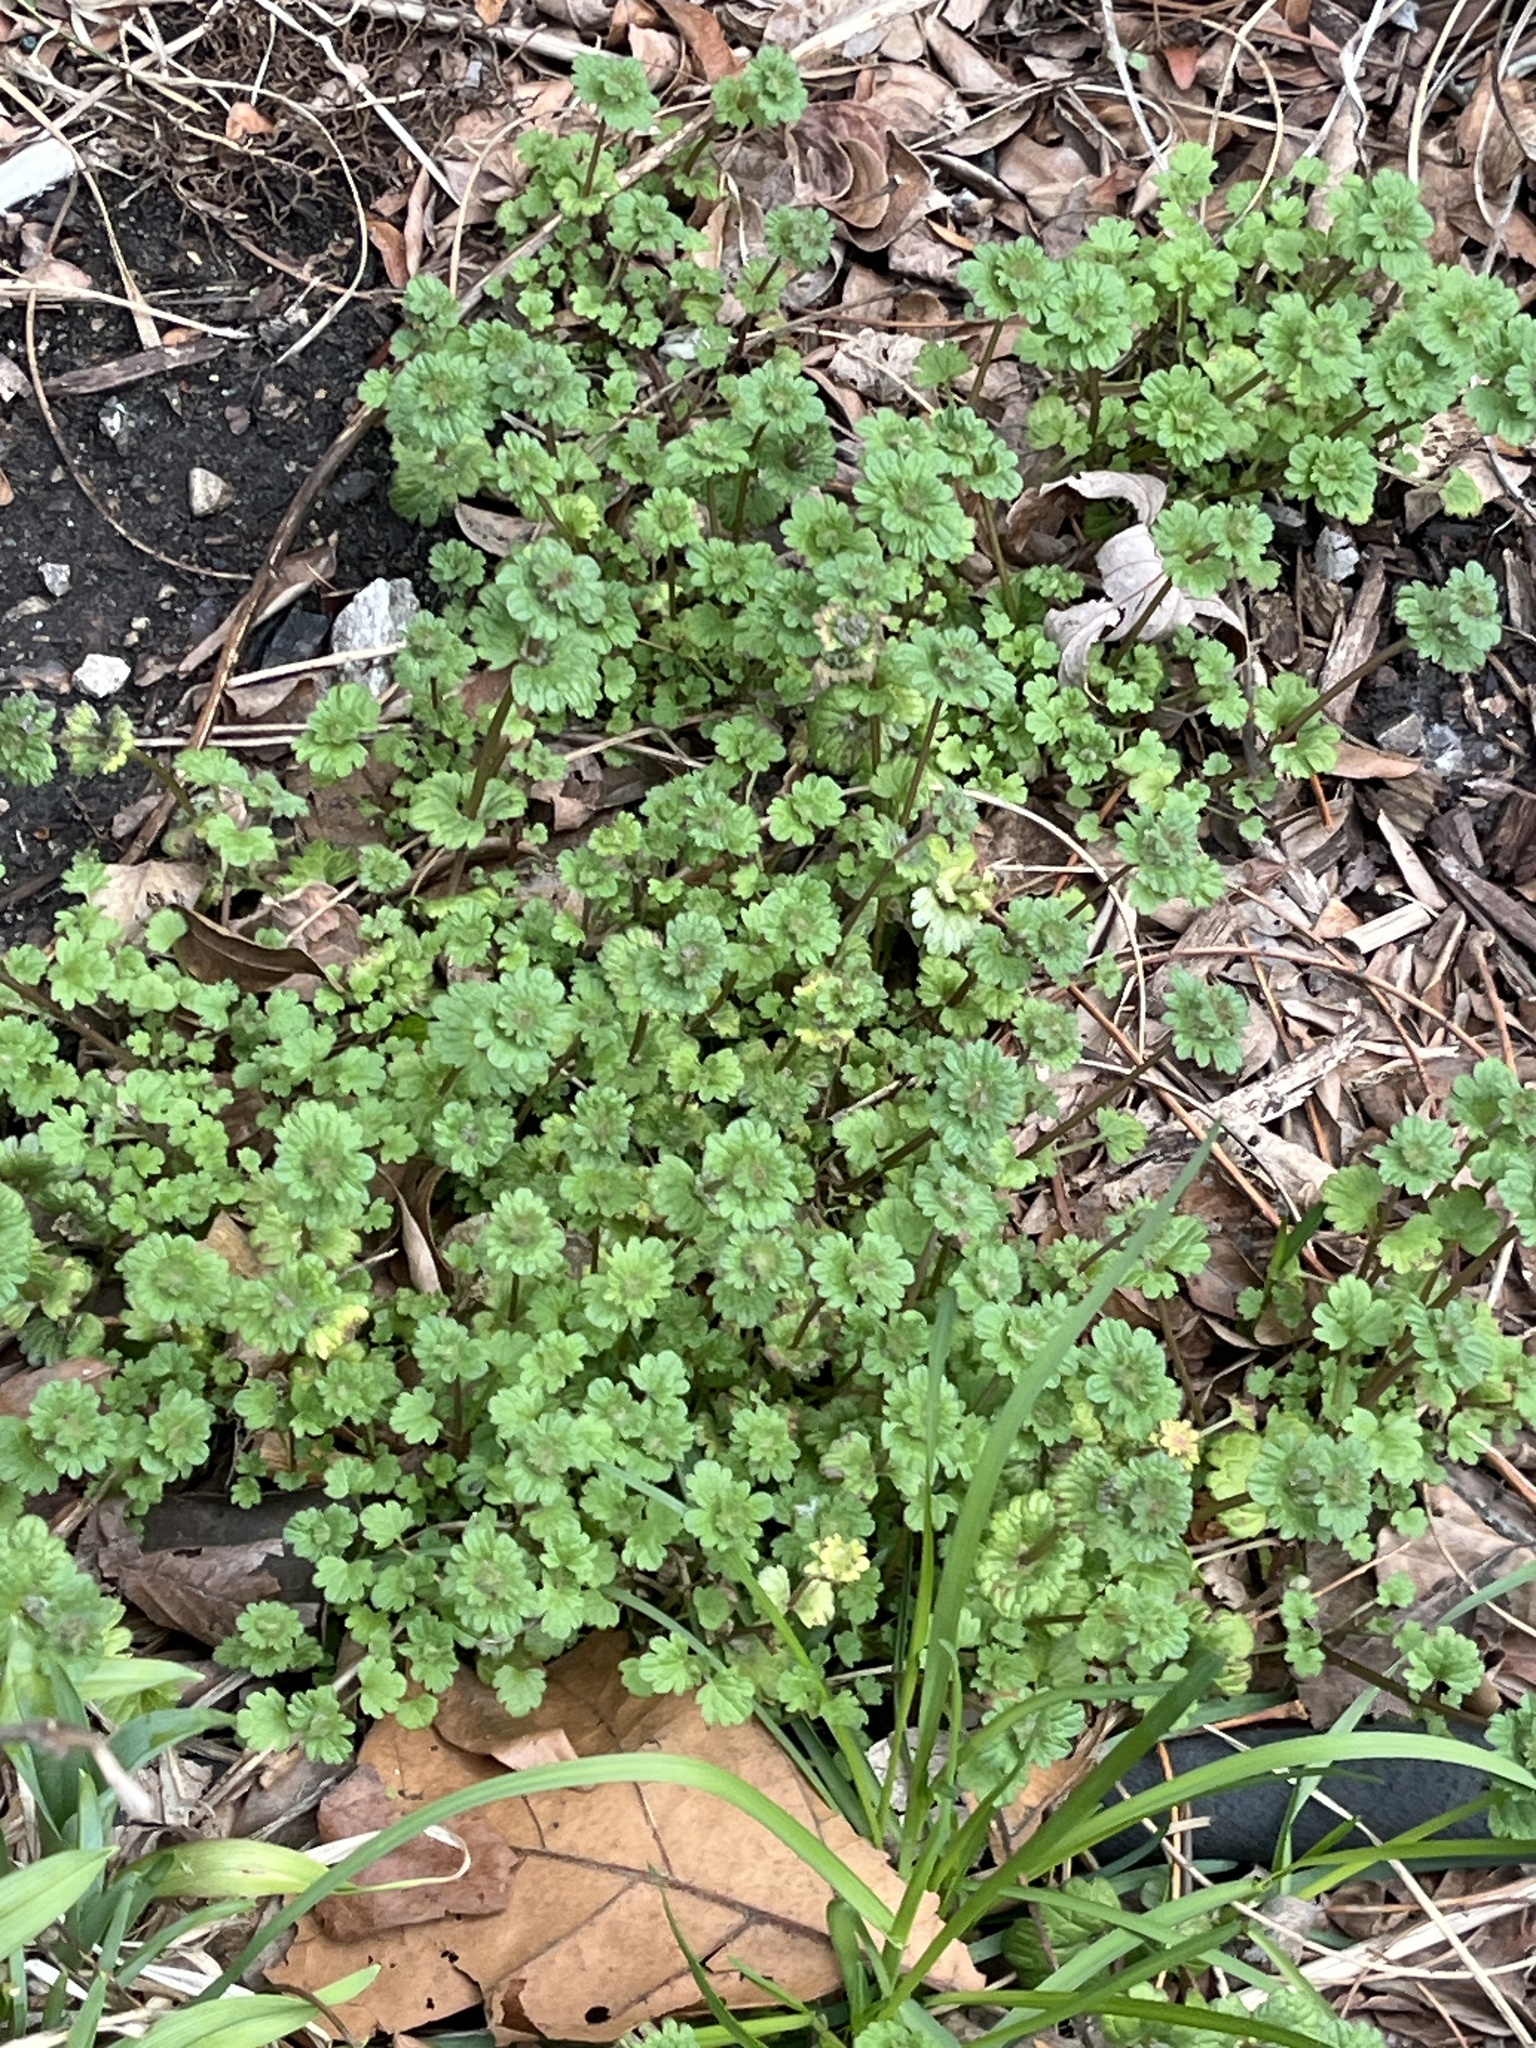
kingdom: Plantae
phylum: Tracheophyta
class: Magnoliopsida
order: Lamiales
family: Lamiaceae
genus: Lamium
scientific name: Lamium amplexicaule
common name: Henbit dead-nettle
